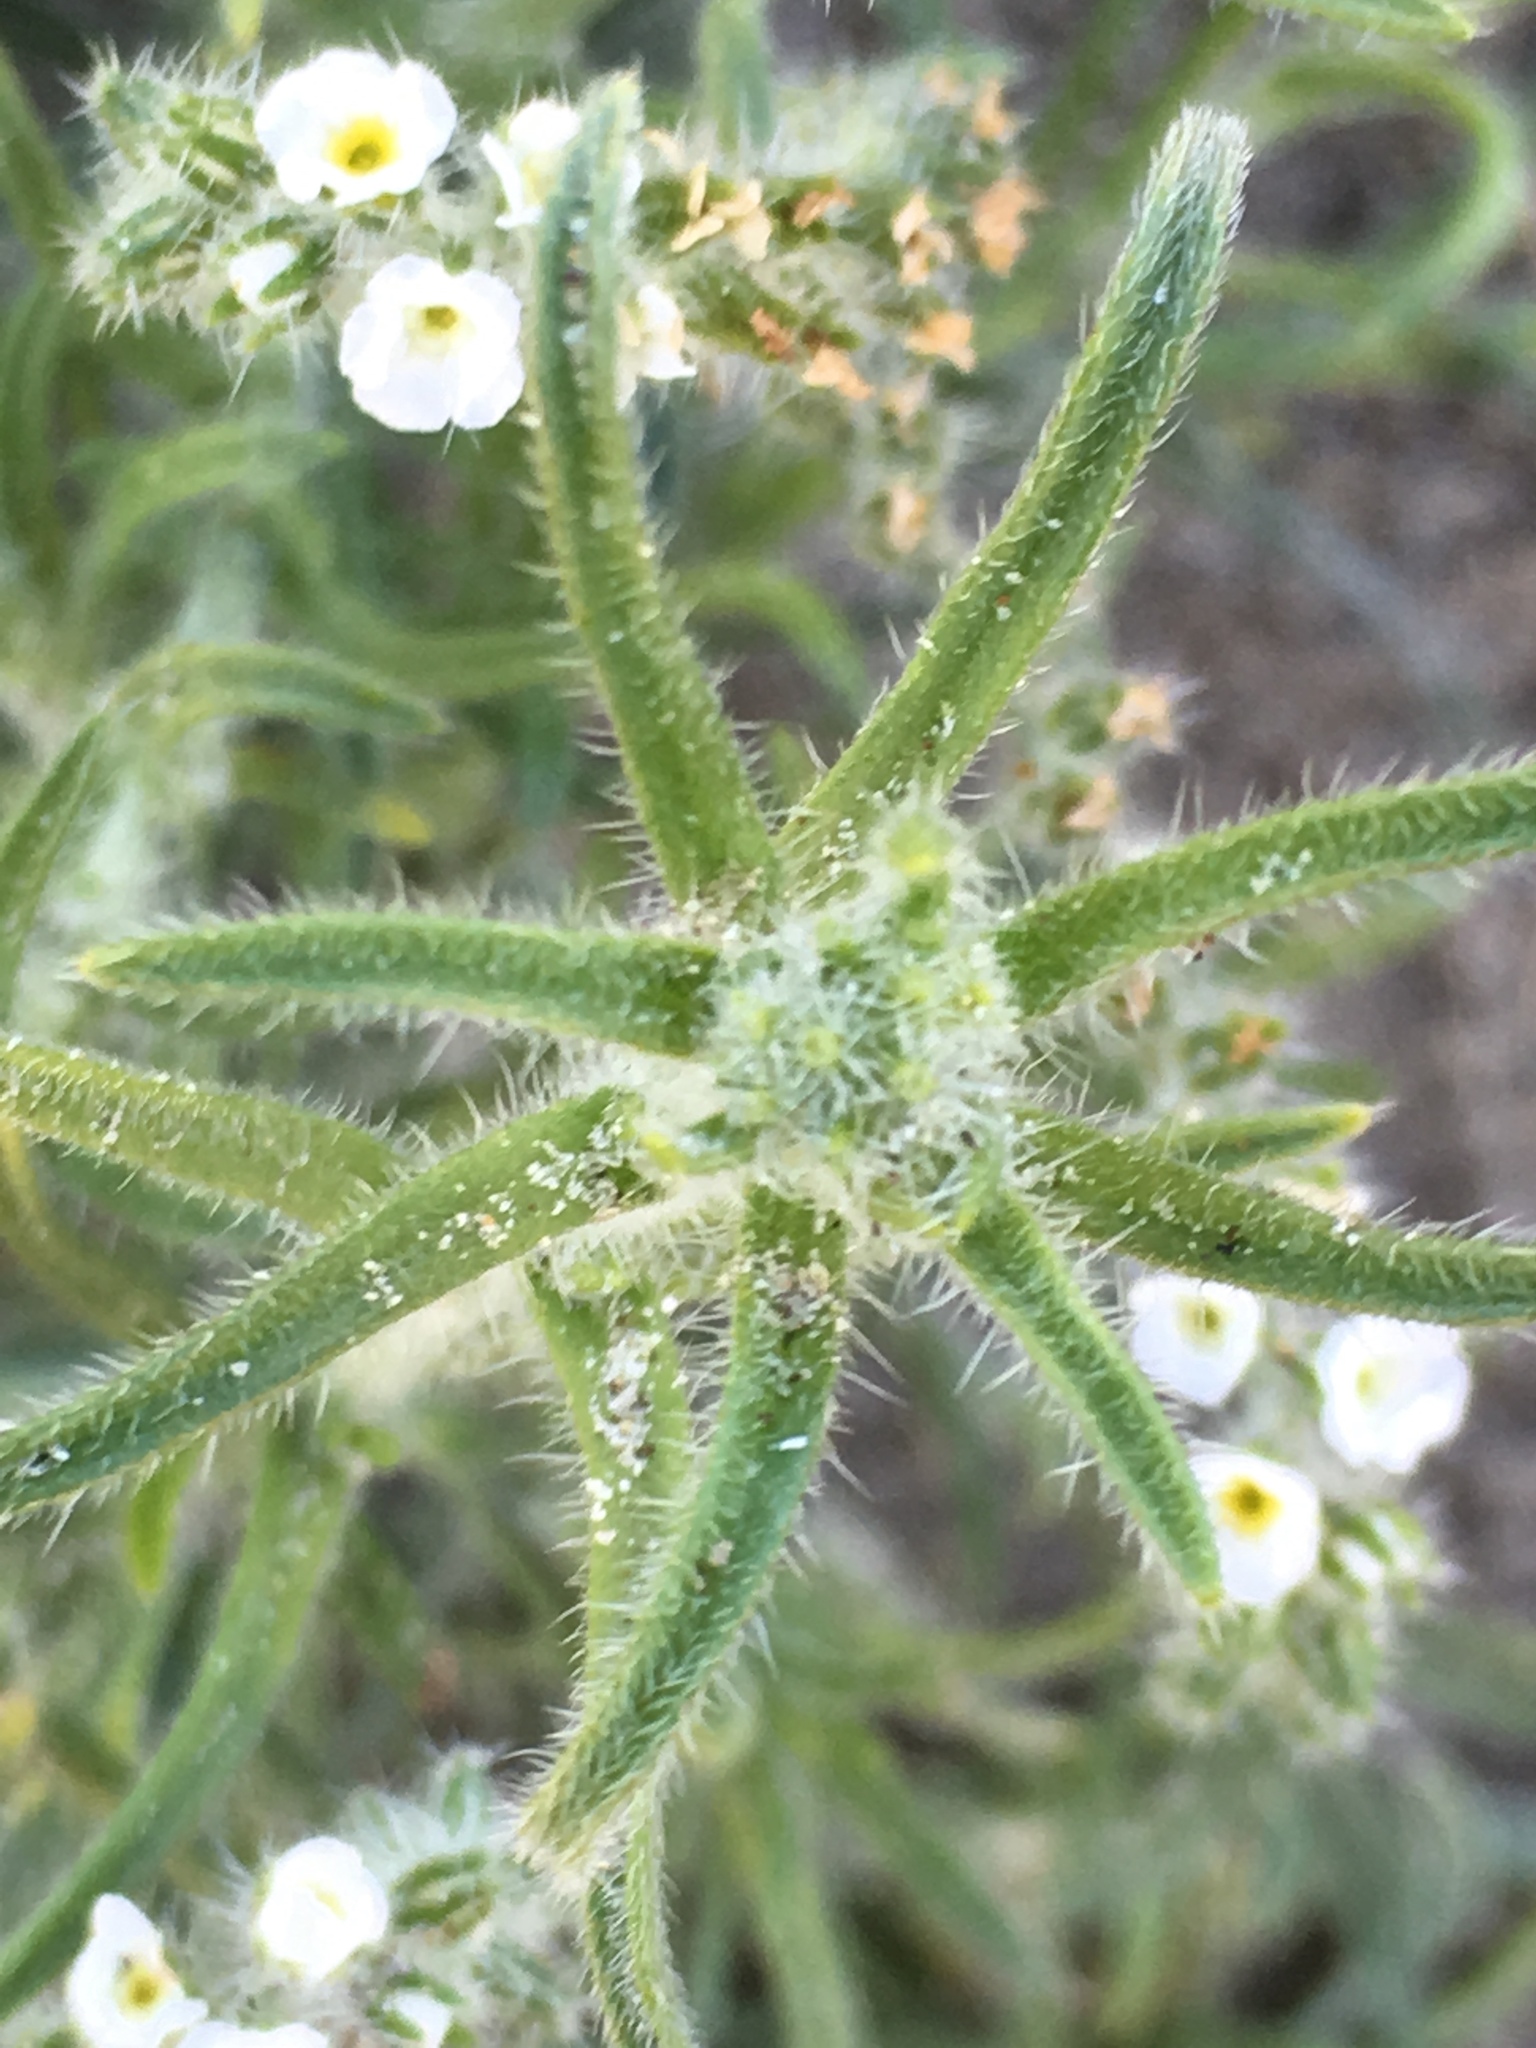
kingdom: Plantae
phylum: Tracheophyta
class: Magnoliopsida
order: Boraginales
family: Boraginaceae
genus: Johnstonella
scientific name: Johnstonella angustifolia
